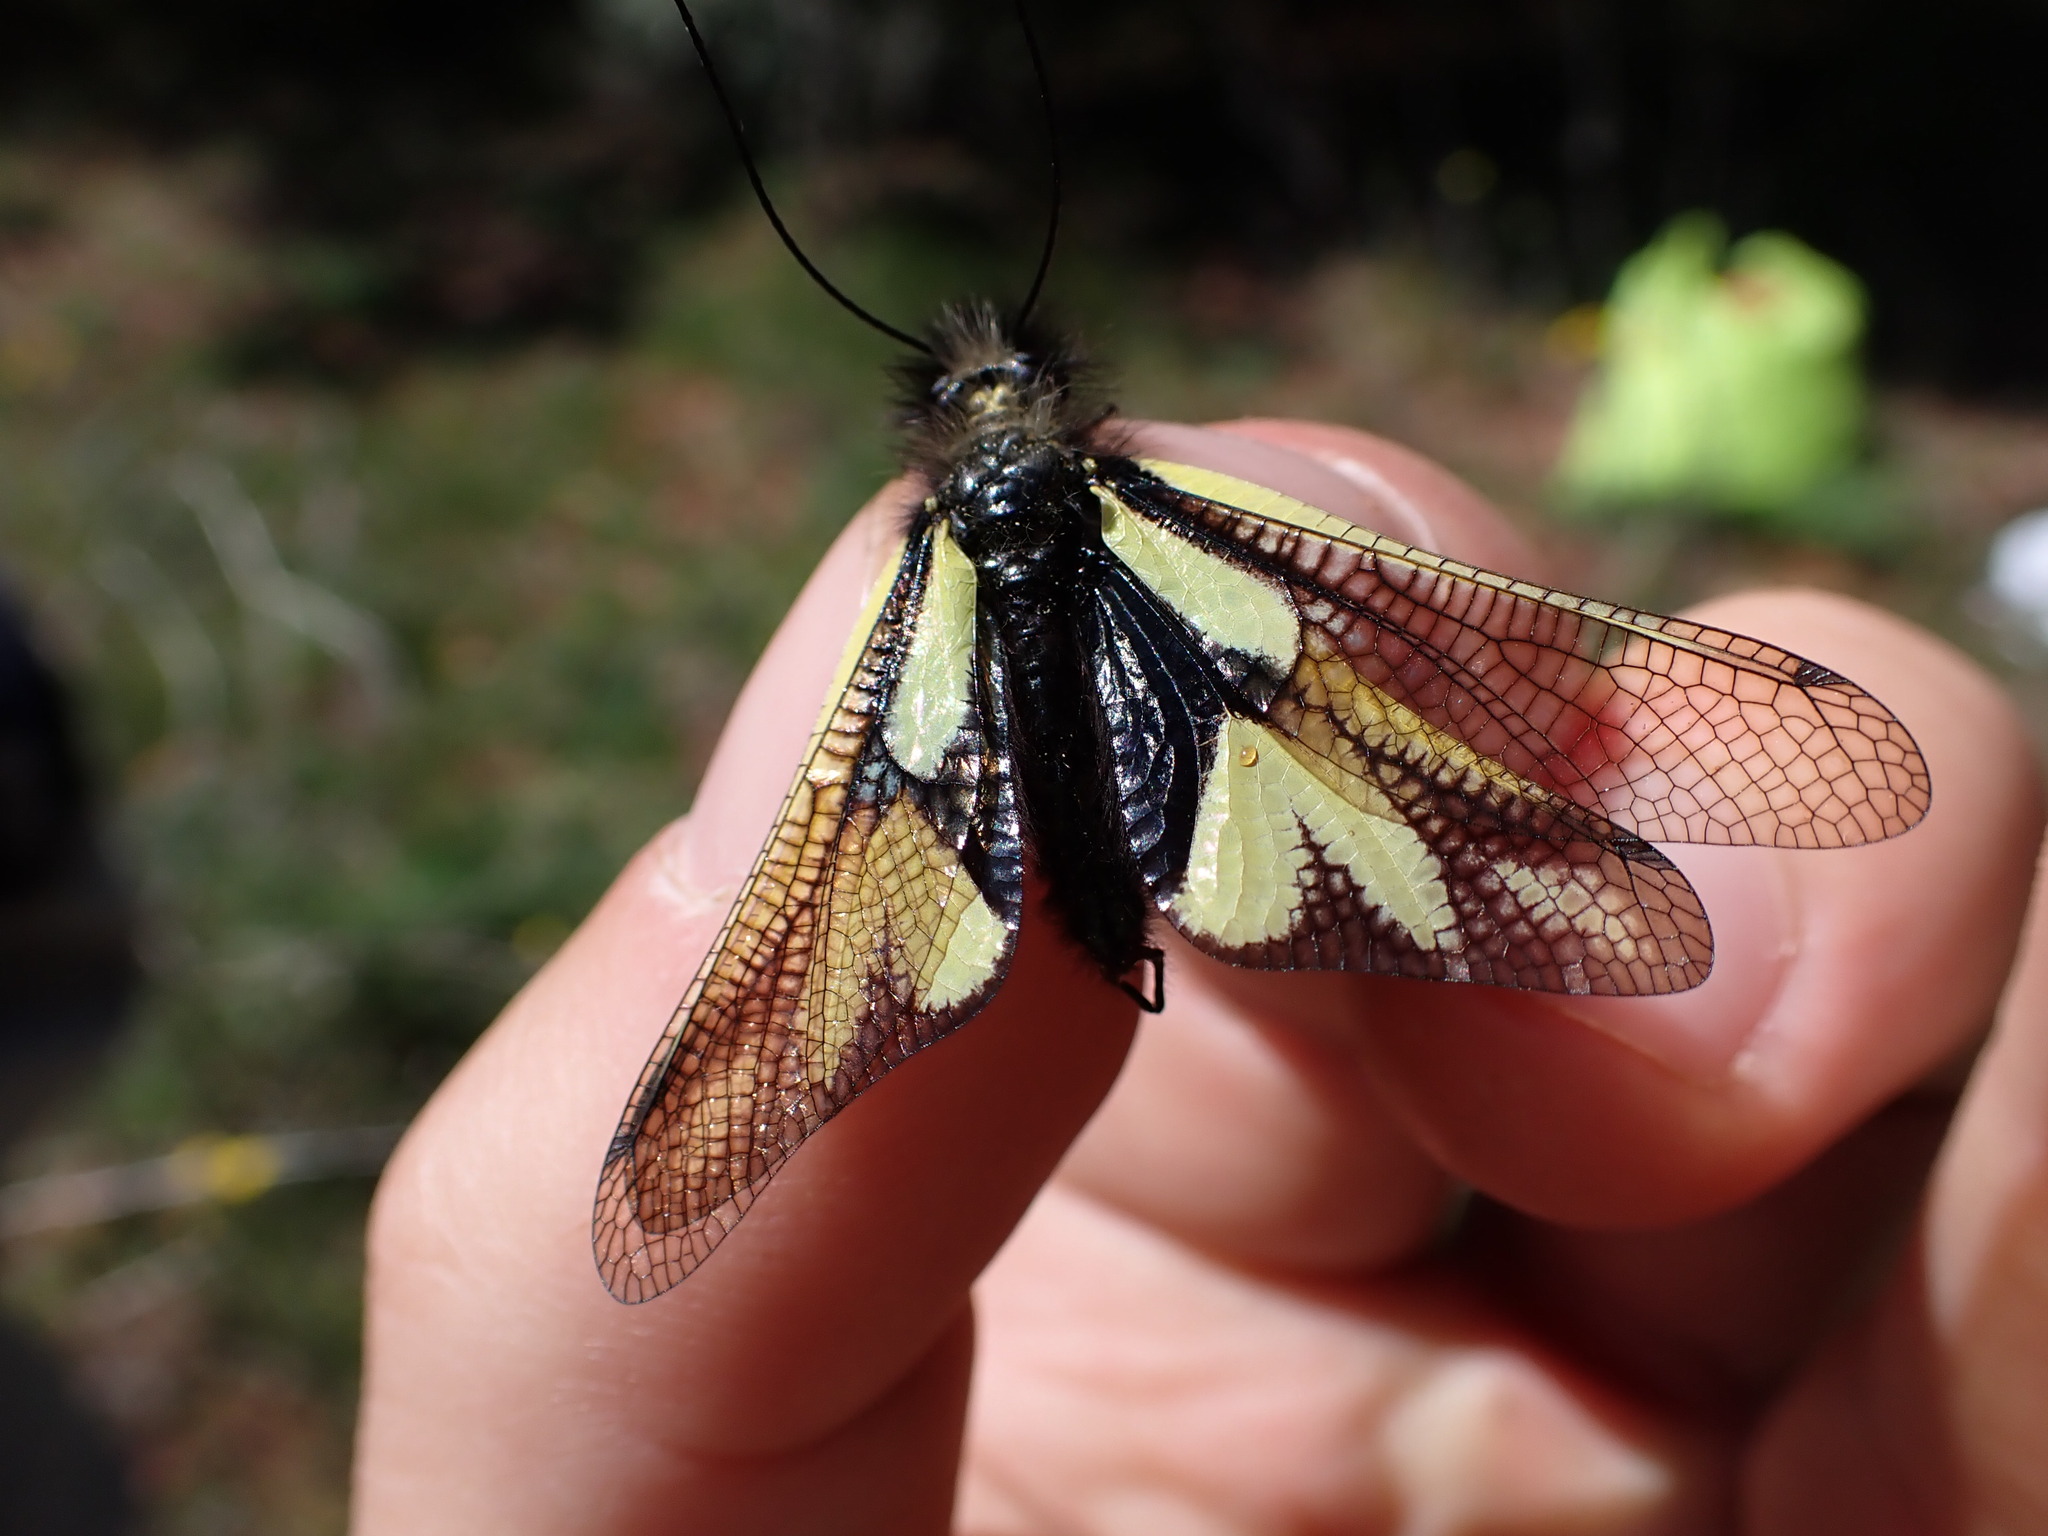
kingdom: Animalia
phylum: Arthropoda
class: Insecta
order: Neuroptera
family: Ascalaphidae
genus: Libelloides
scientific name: Libelloides coccajus
